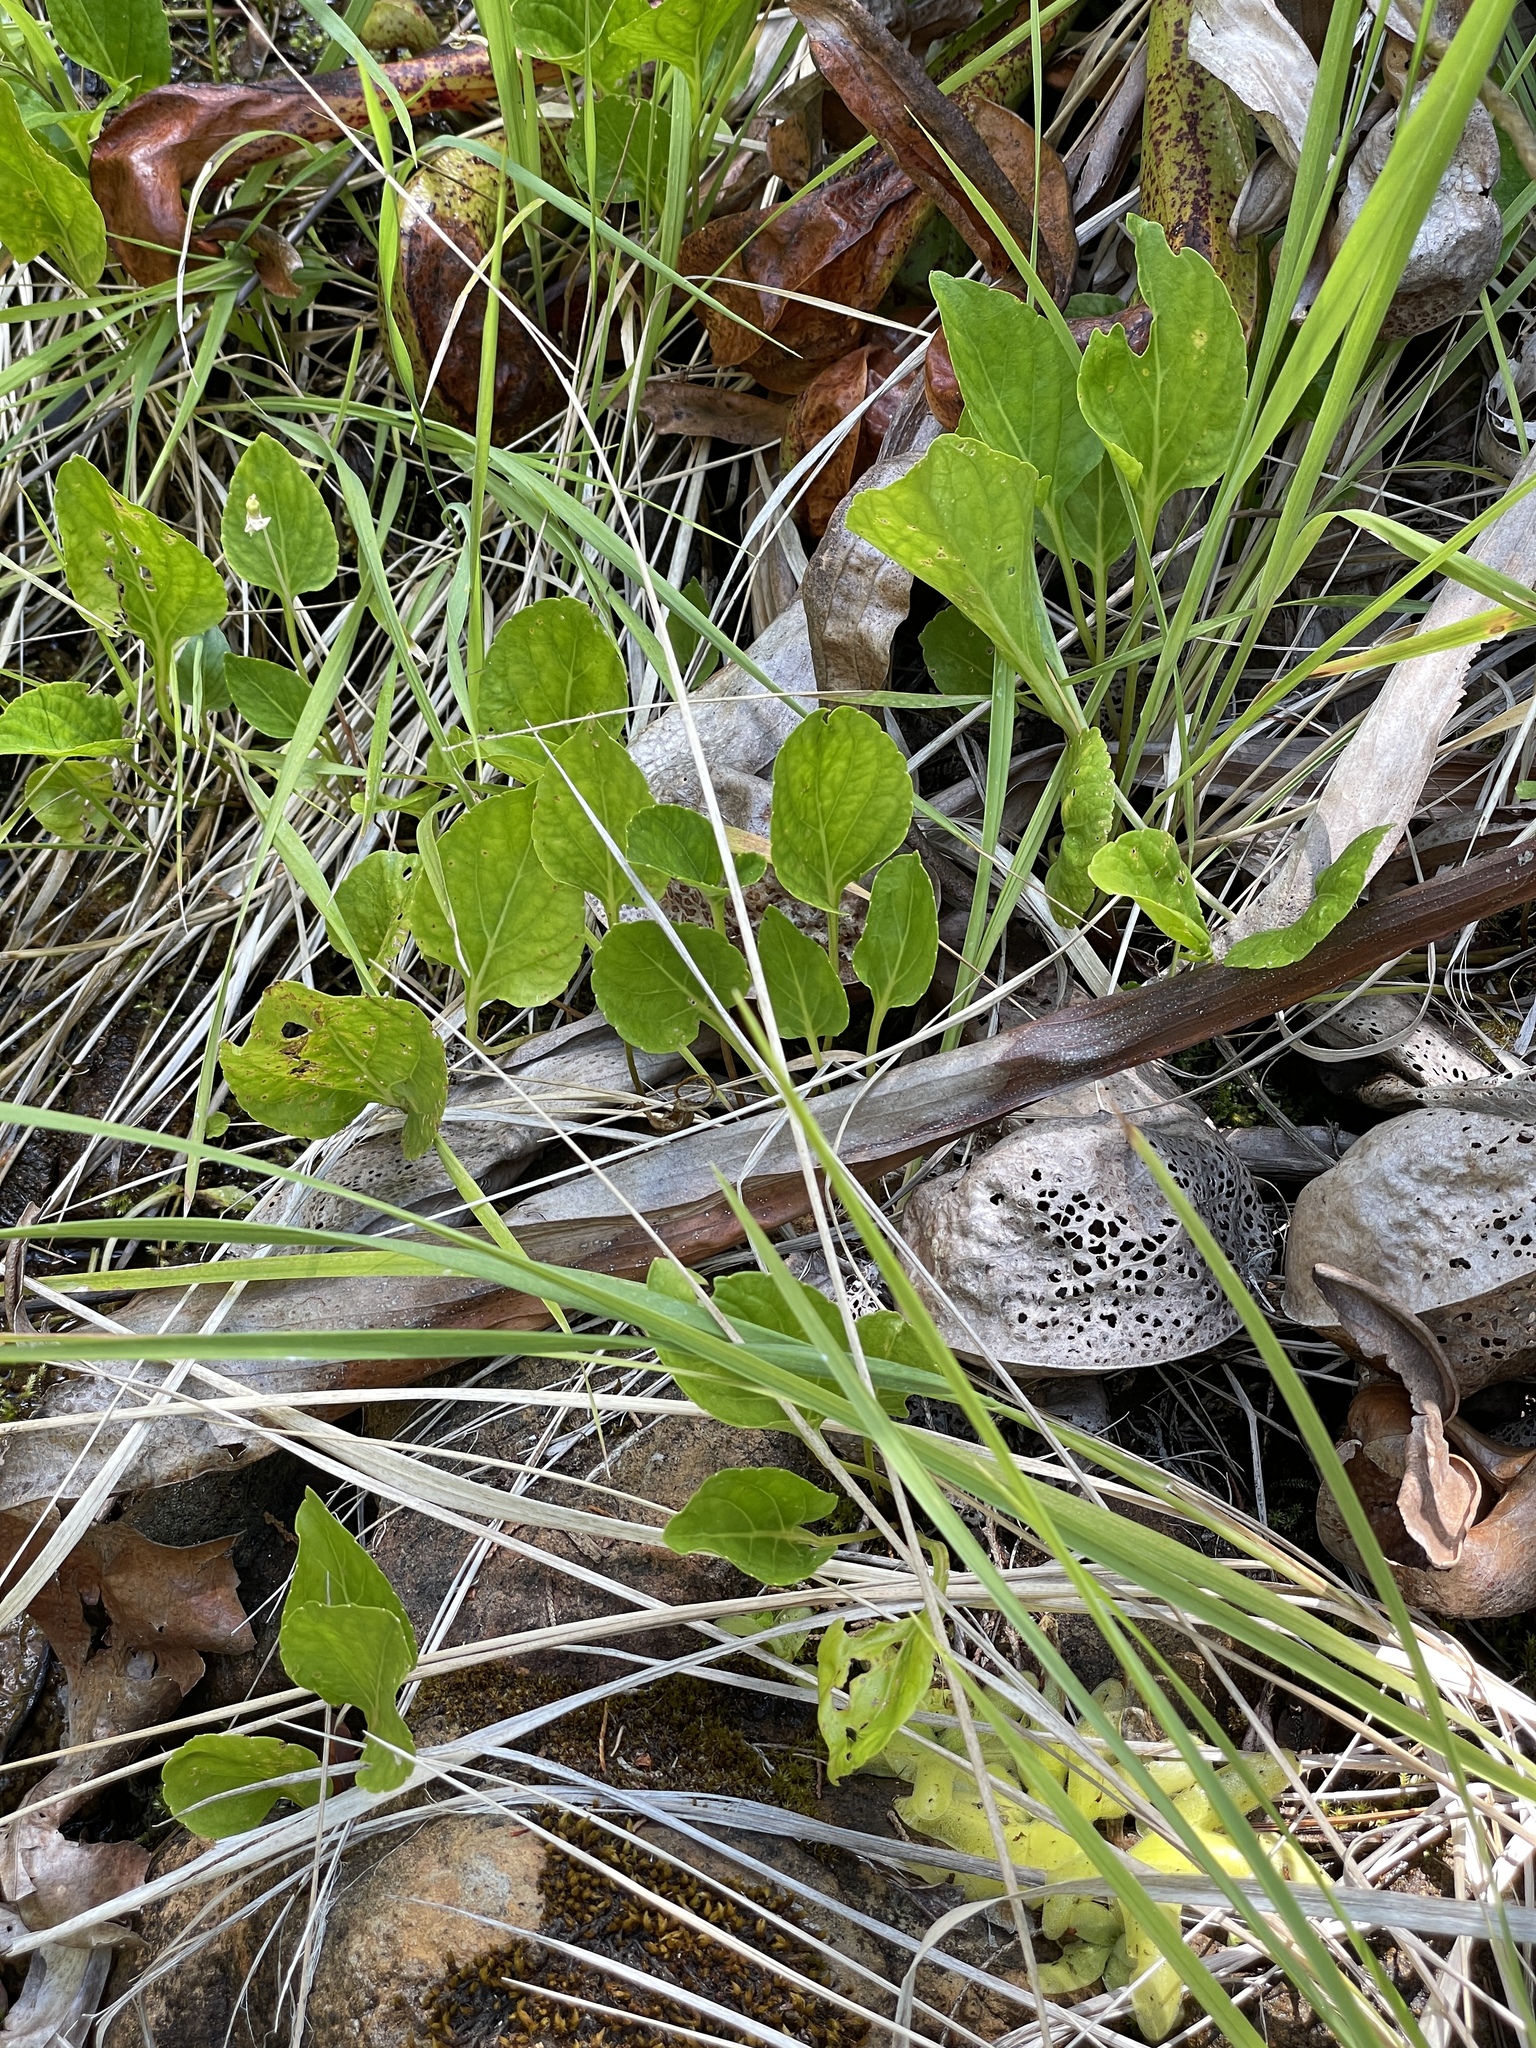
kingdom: Plantae
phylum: Tracheophyta
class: Magnoliopsida
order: Malpighiales
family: Violaceae
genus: Viola
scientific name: Viola occidentalis
